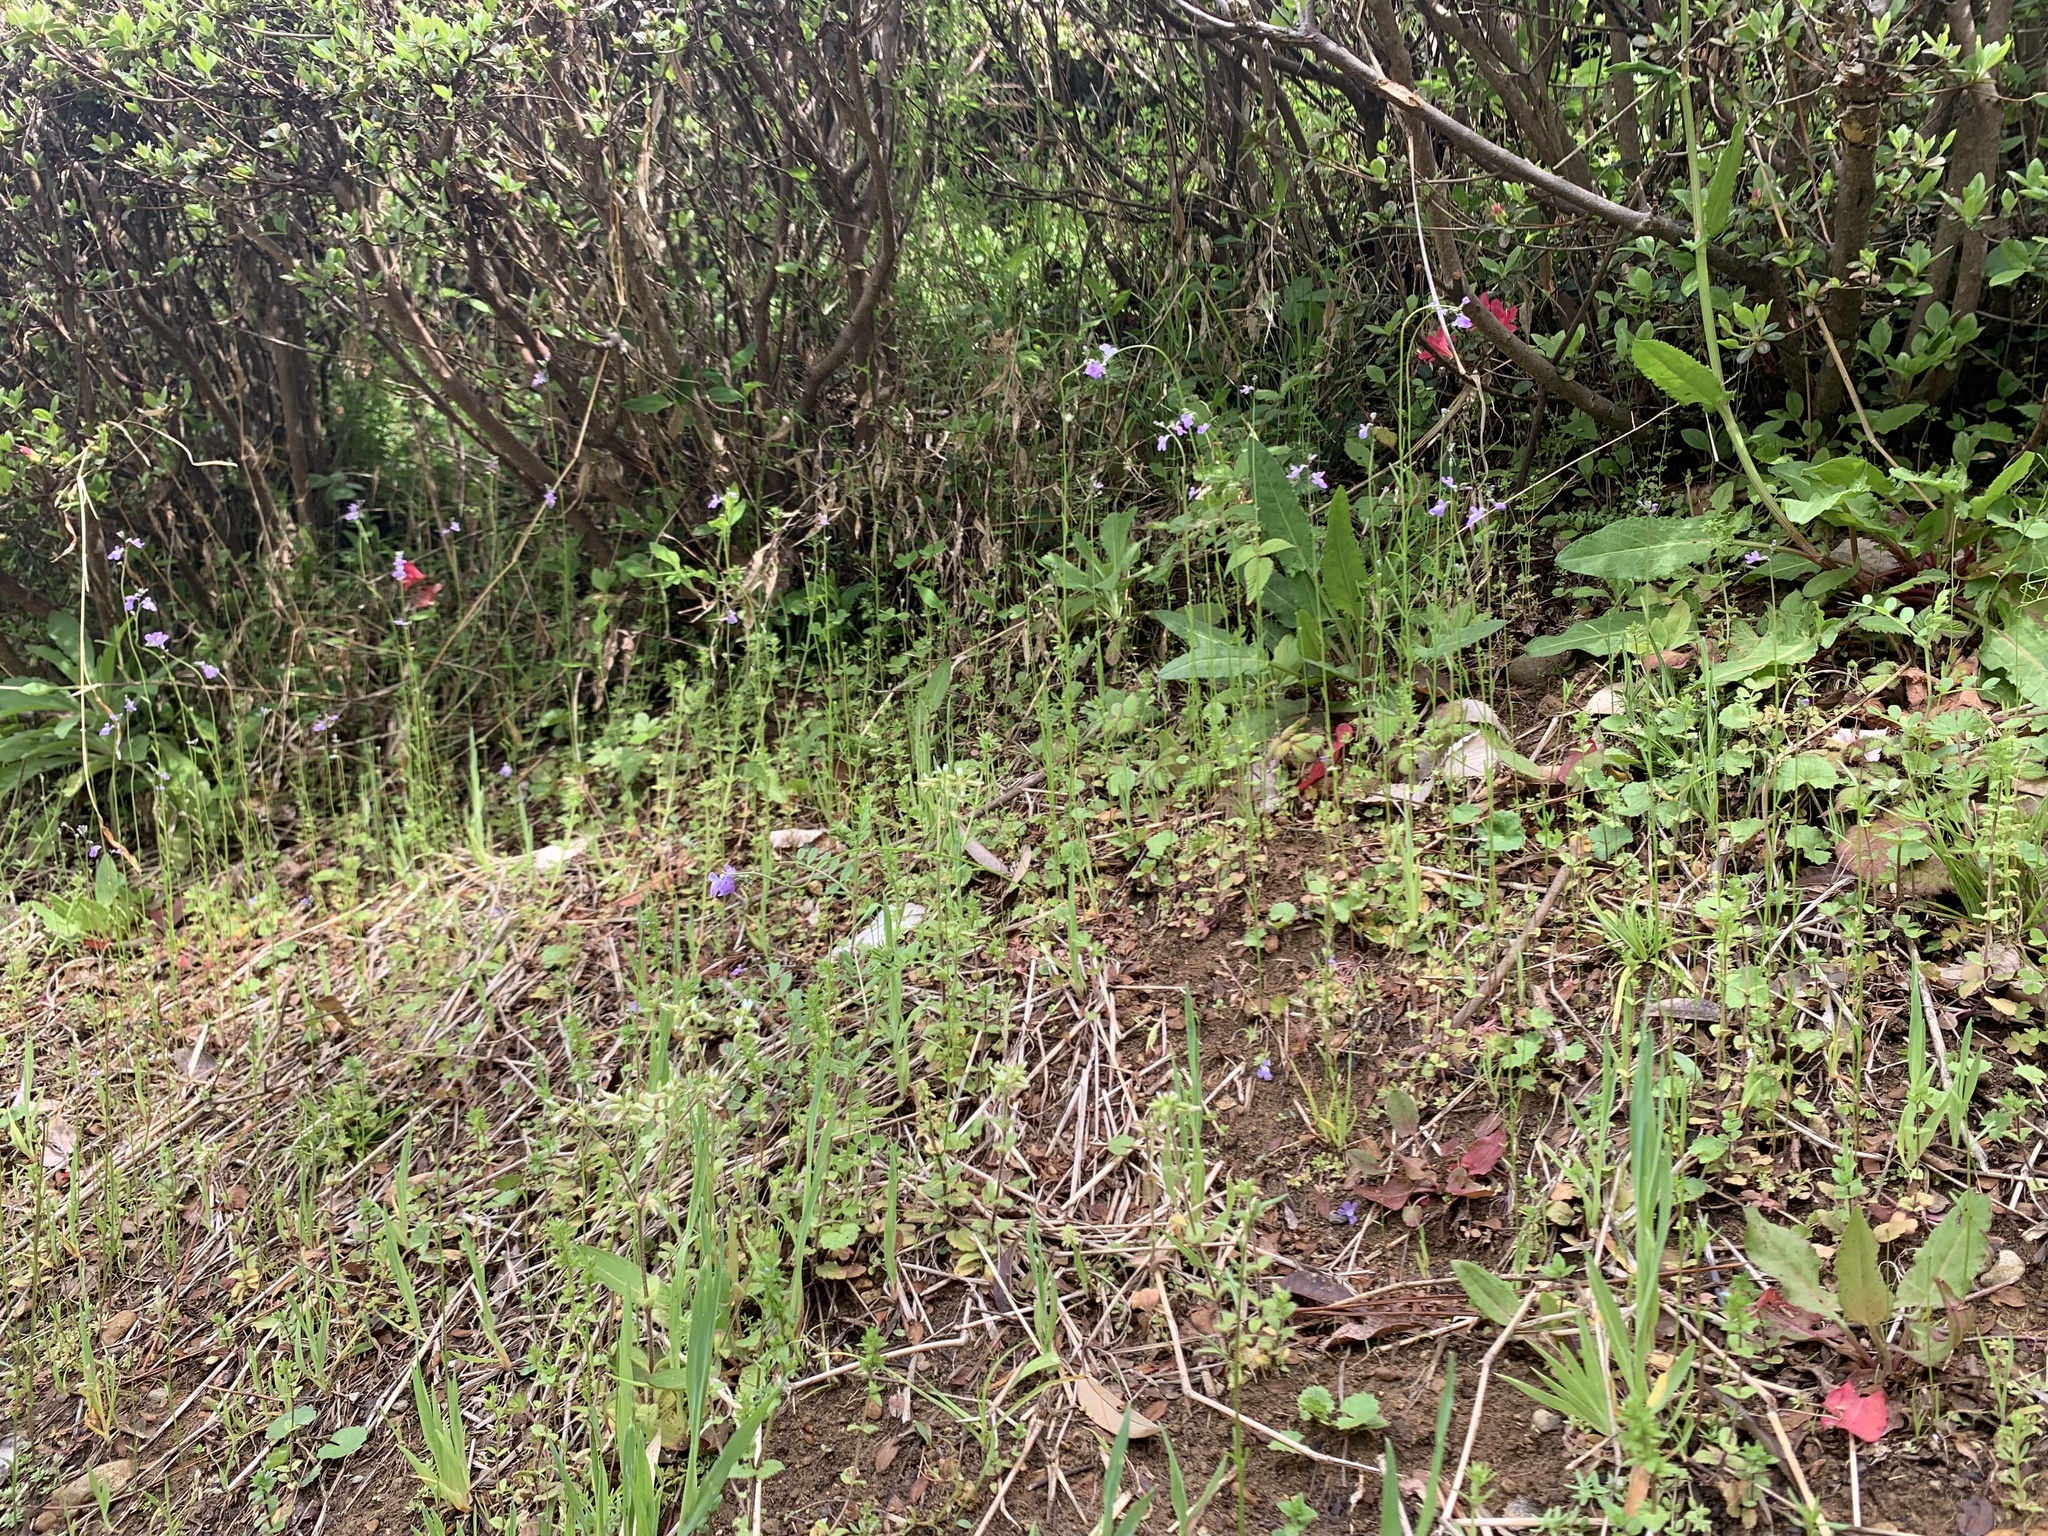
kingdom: Plantae
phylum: Tracheophyta
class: Magnoliopsida
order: Lamiales
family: Plantaginaceae
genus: Nuttallanthus
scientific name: Nuttallanthus canadensis
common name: Blue toadflax
